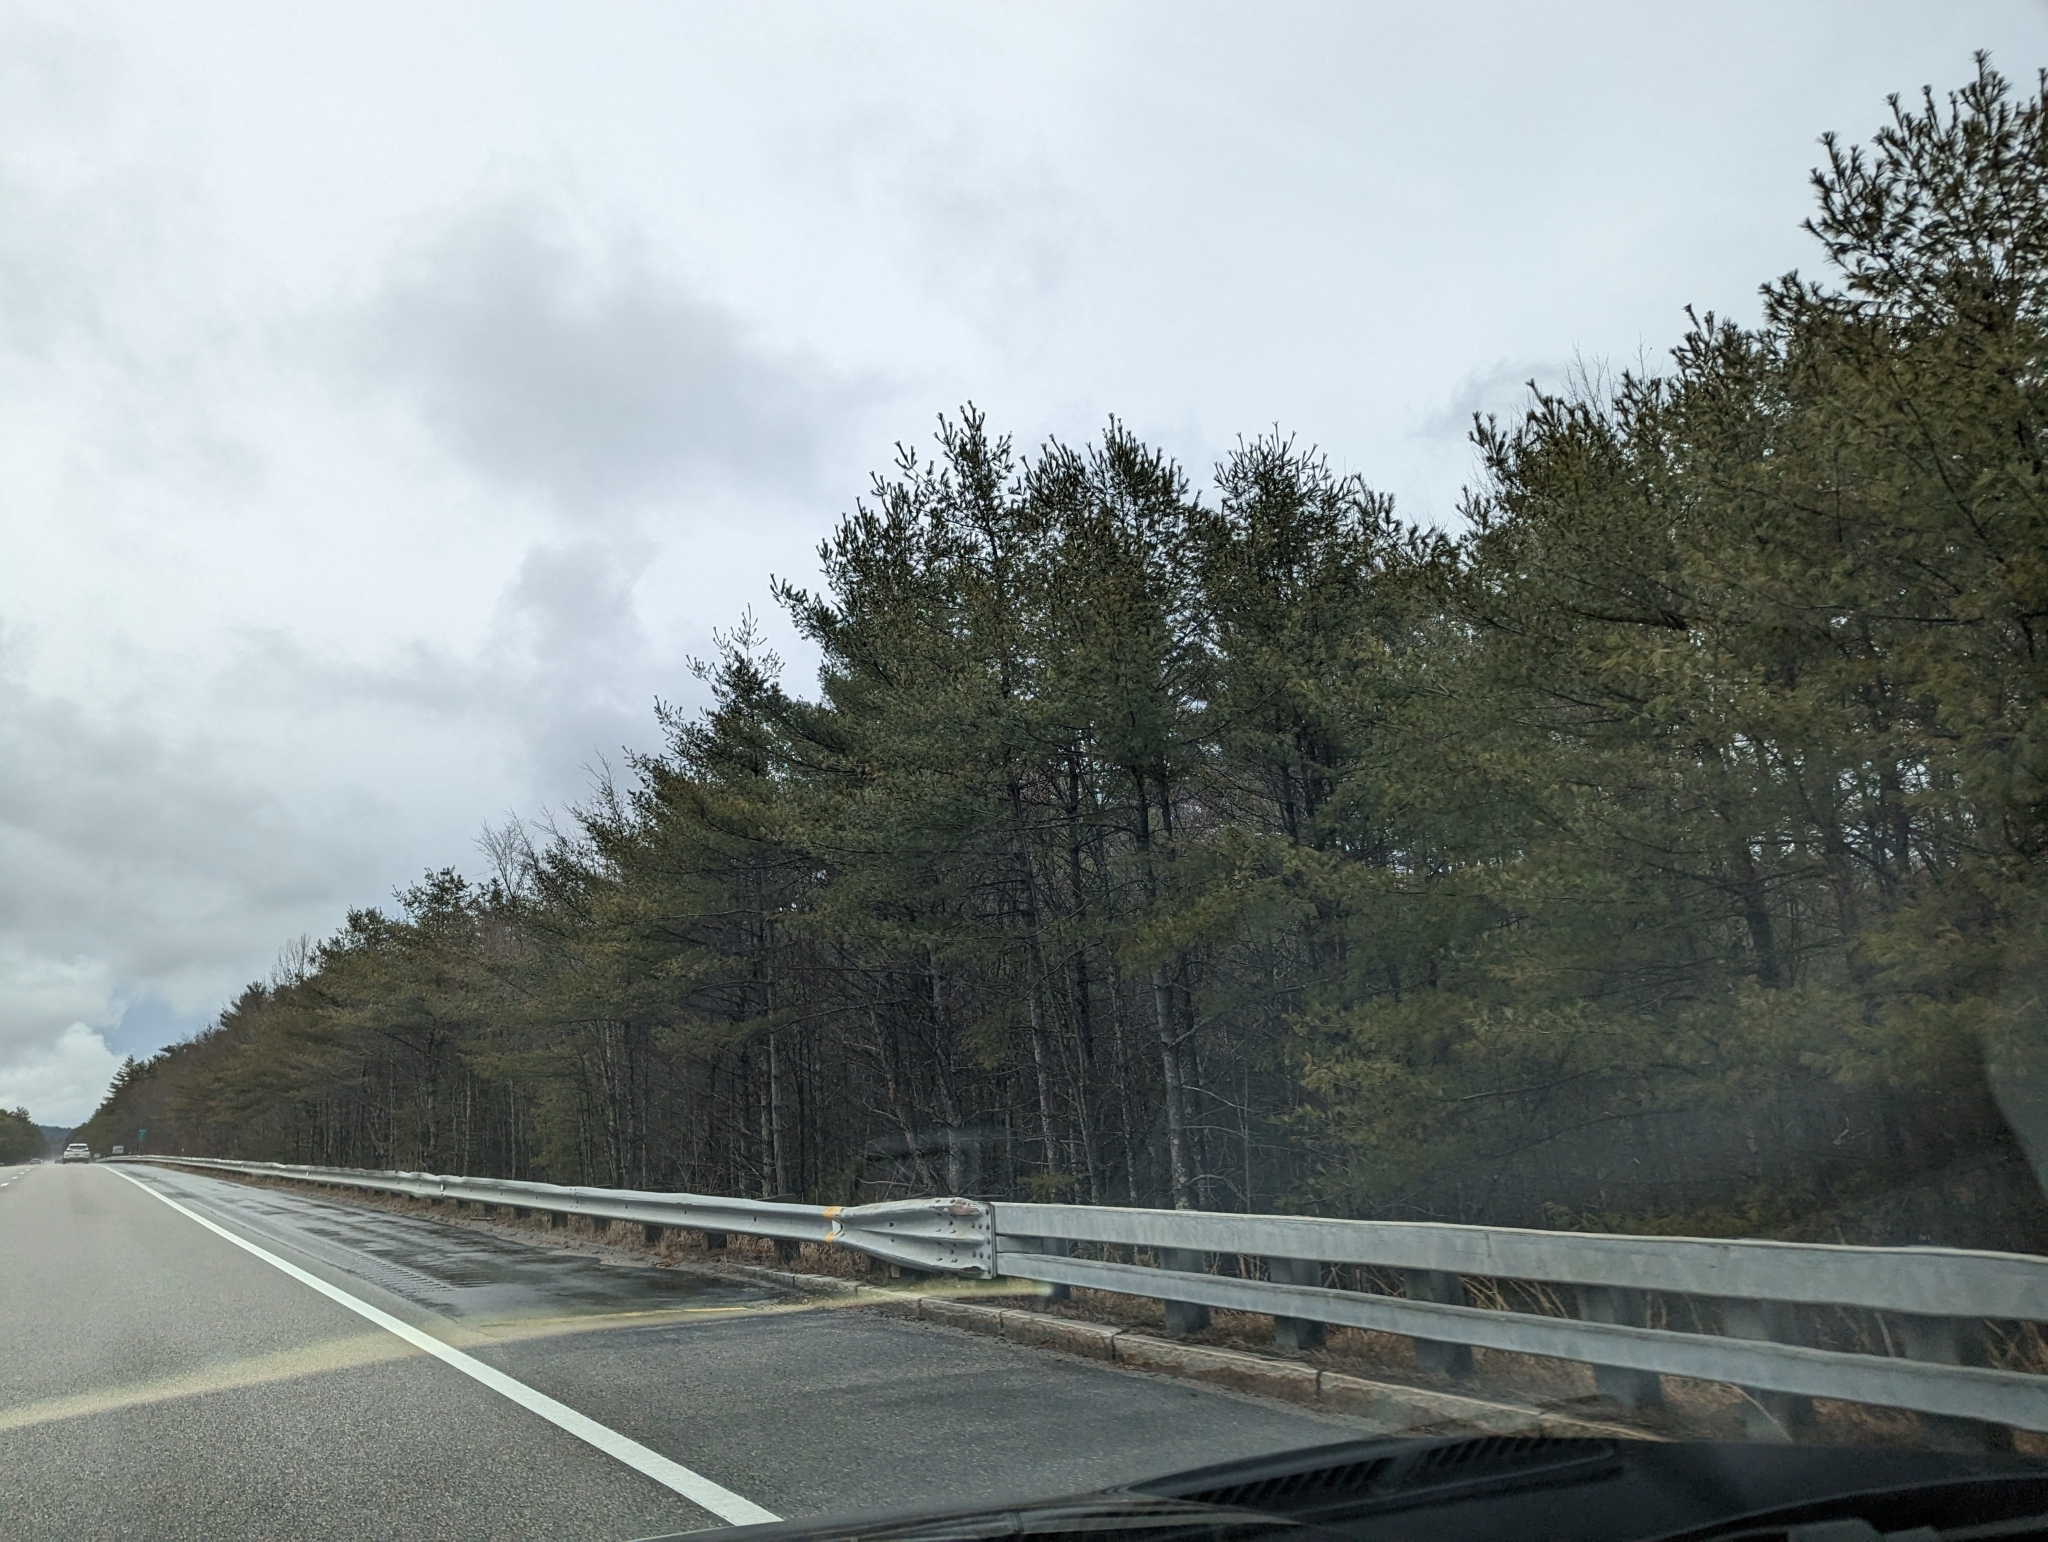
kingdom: Plantae
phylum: Tracheophyta
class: Pinopsida
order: Pinales
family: Pinaceae
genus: Pinus
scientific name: Pinus strobus
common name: Weymouth pine
